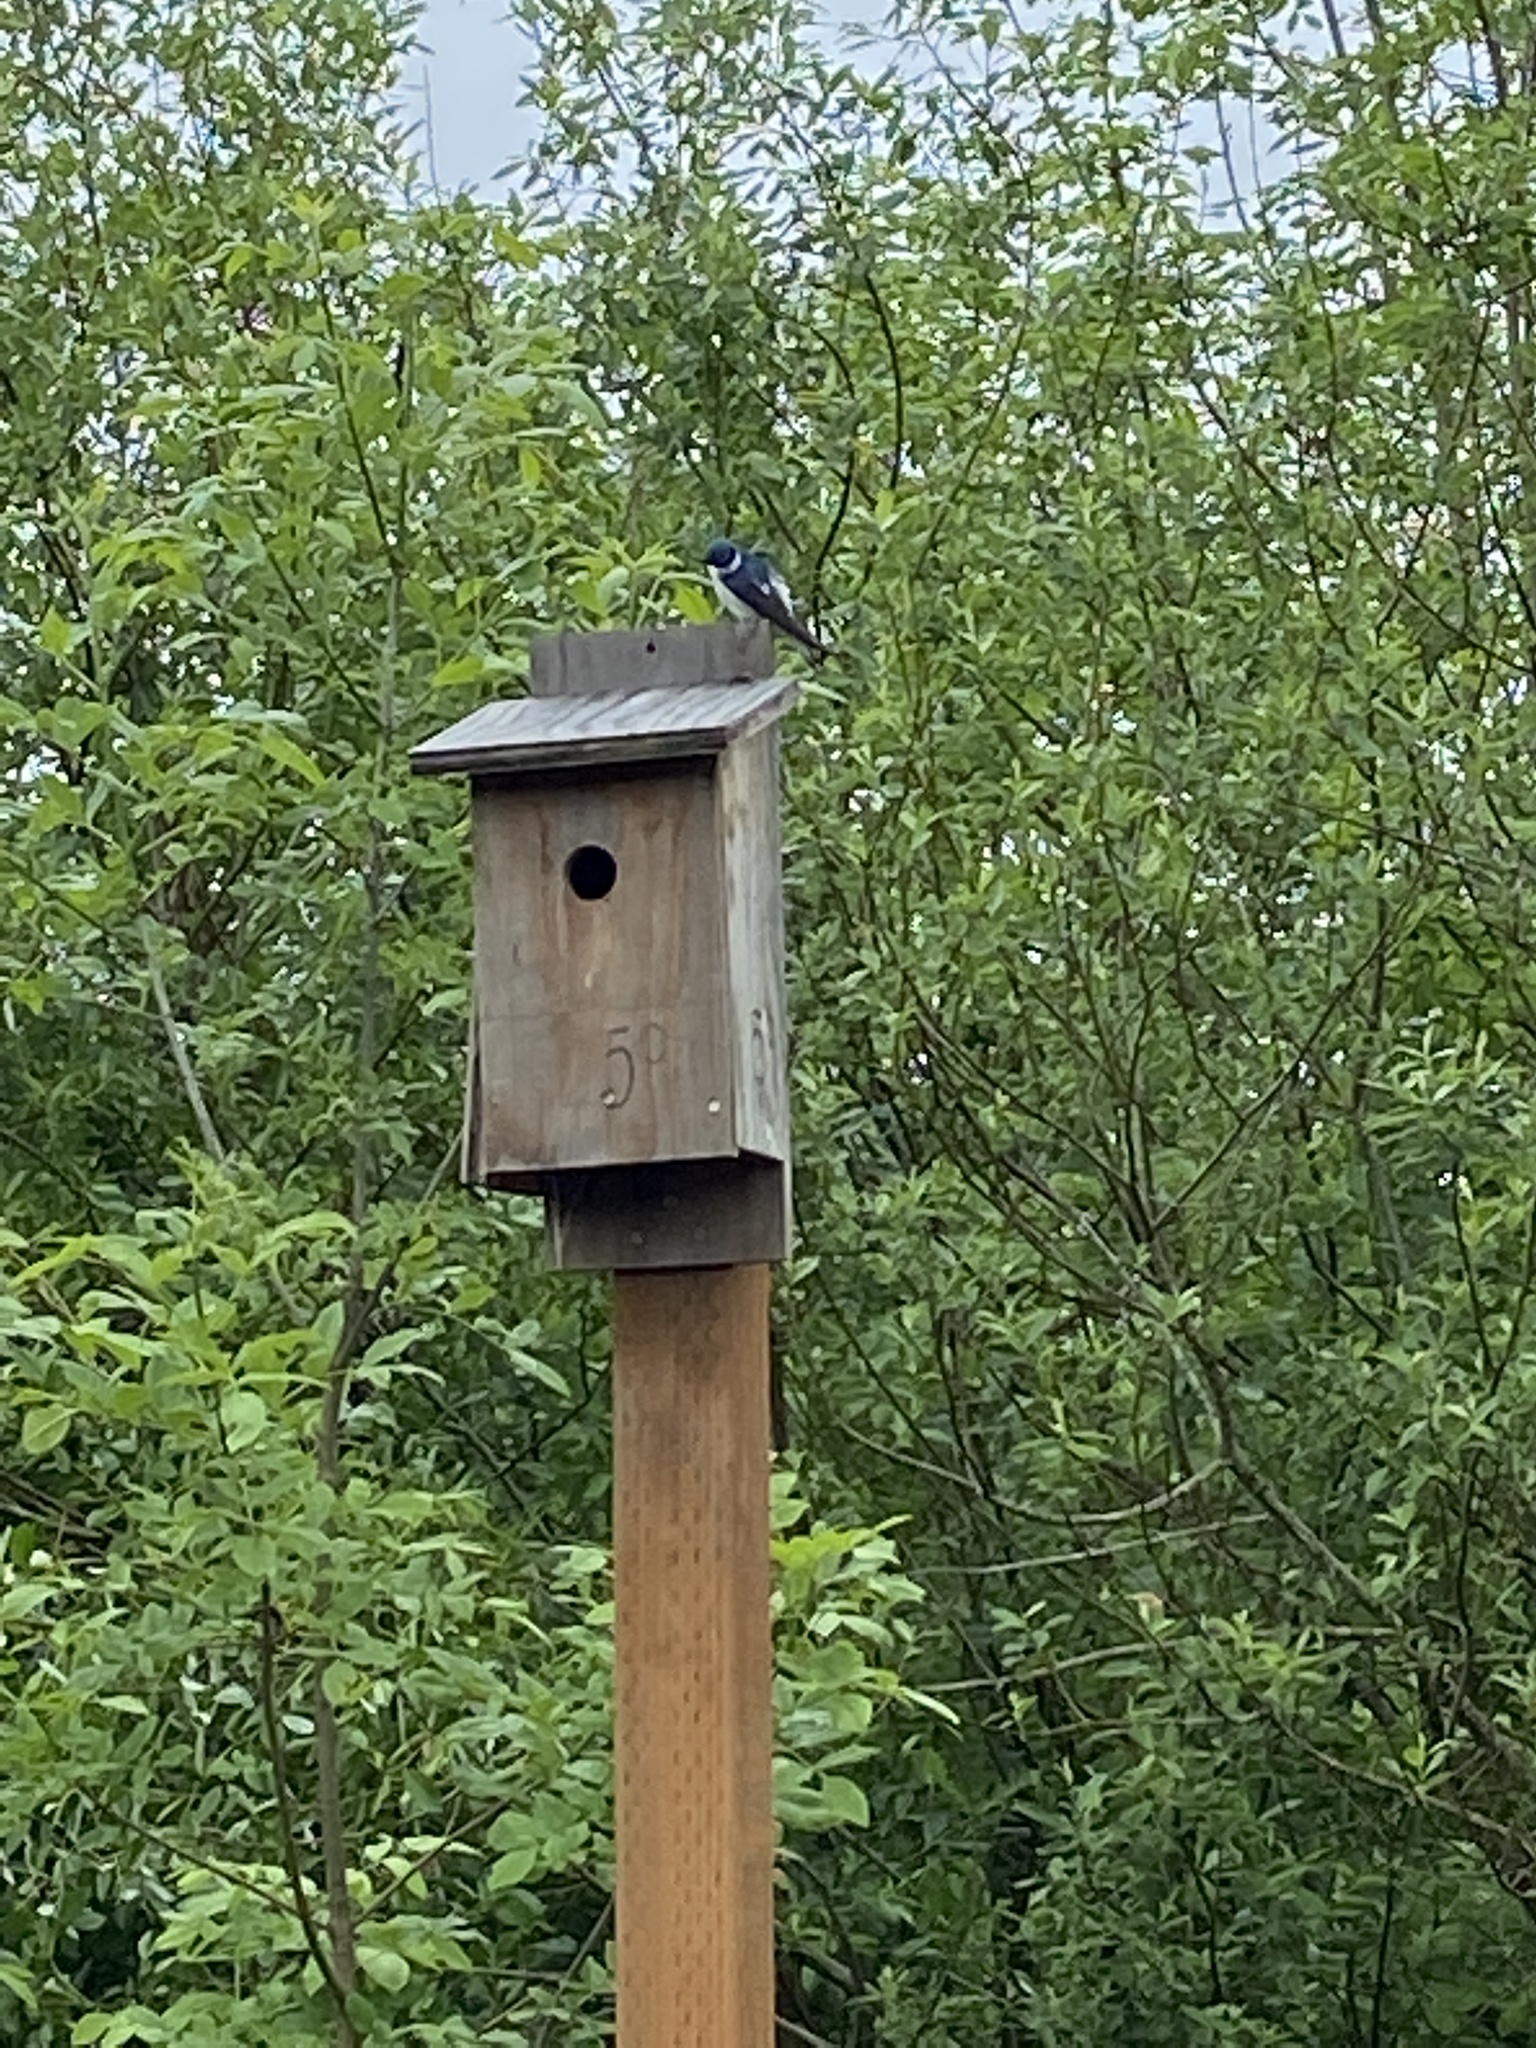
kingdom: Animalia
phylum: Chordata
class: Aves
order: Passeriformes
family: Hirundinidae
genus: Tachycineta
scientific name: Tachycineta bicolor
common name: Tree swallow
